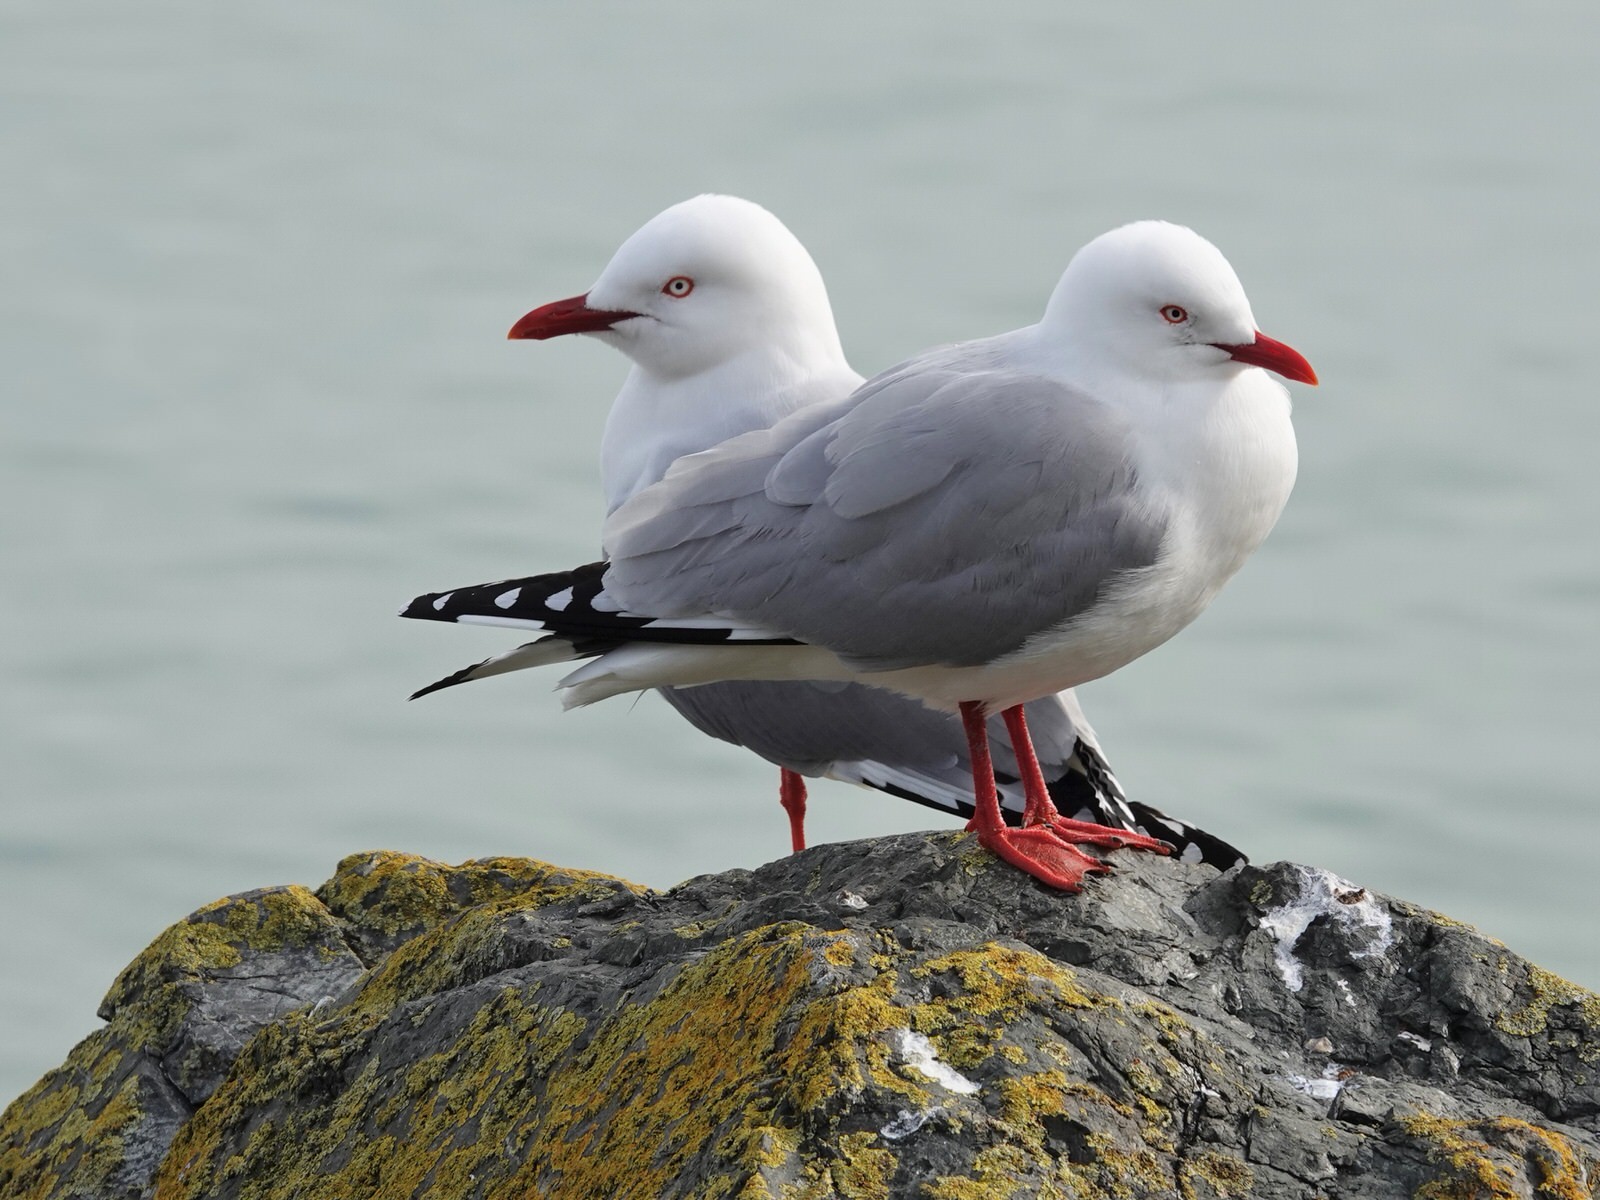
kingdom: Animalia
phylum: Chordata
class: Aves
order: Charadriiformes
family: Laridae
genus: Chroicocephalus
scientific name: Chroicocephalus novaehollandiae
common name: Silver gull
